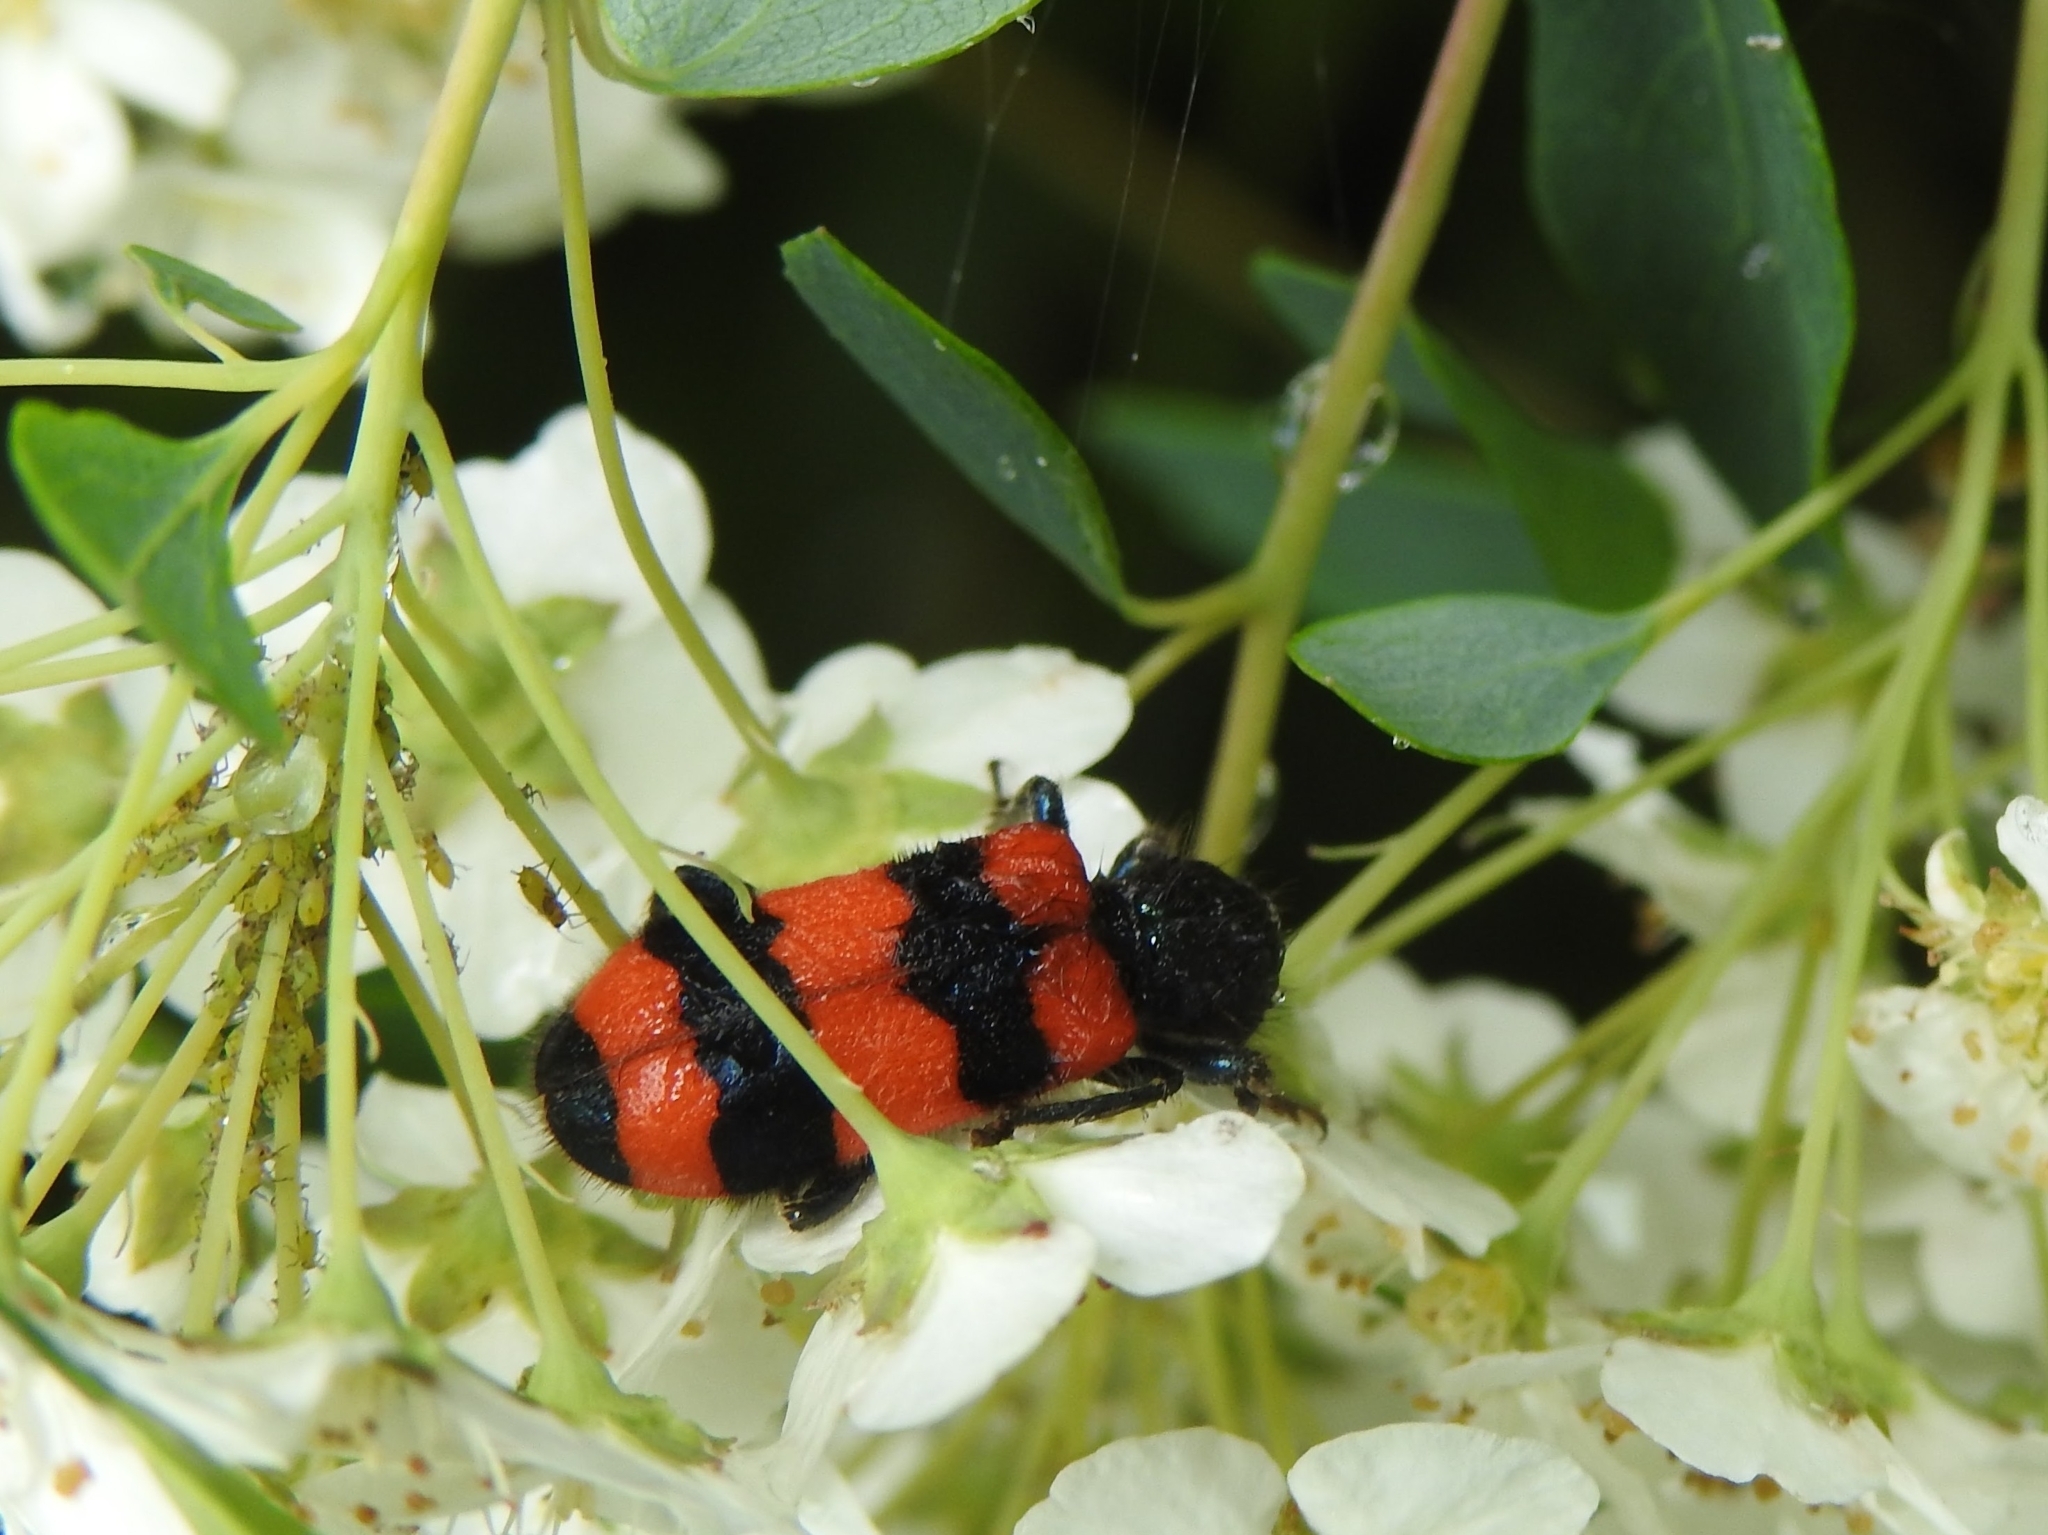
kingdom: Animalia
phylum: Arthropoda
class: Insecta
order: Coleoptera
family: Cleridae
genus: Trichodes
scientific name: Trichodes apiarius
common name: Bee-eating beetle
